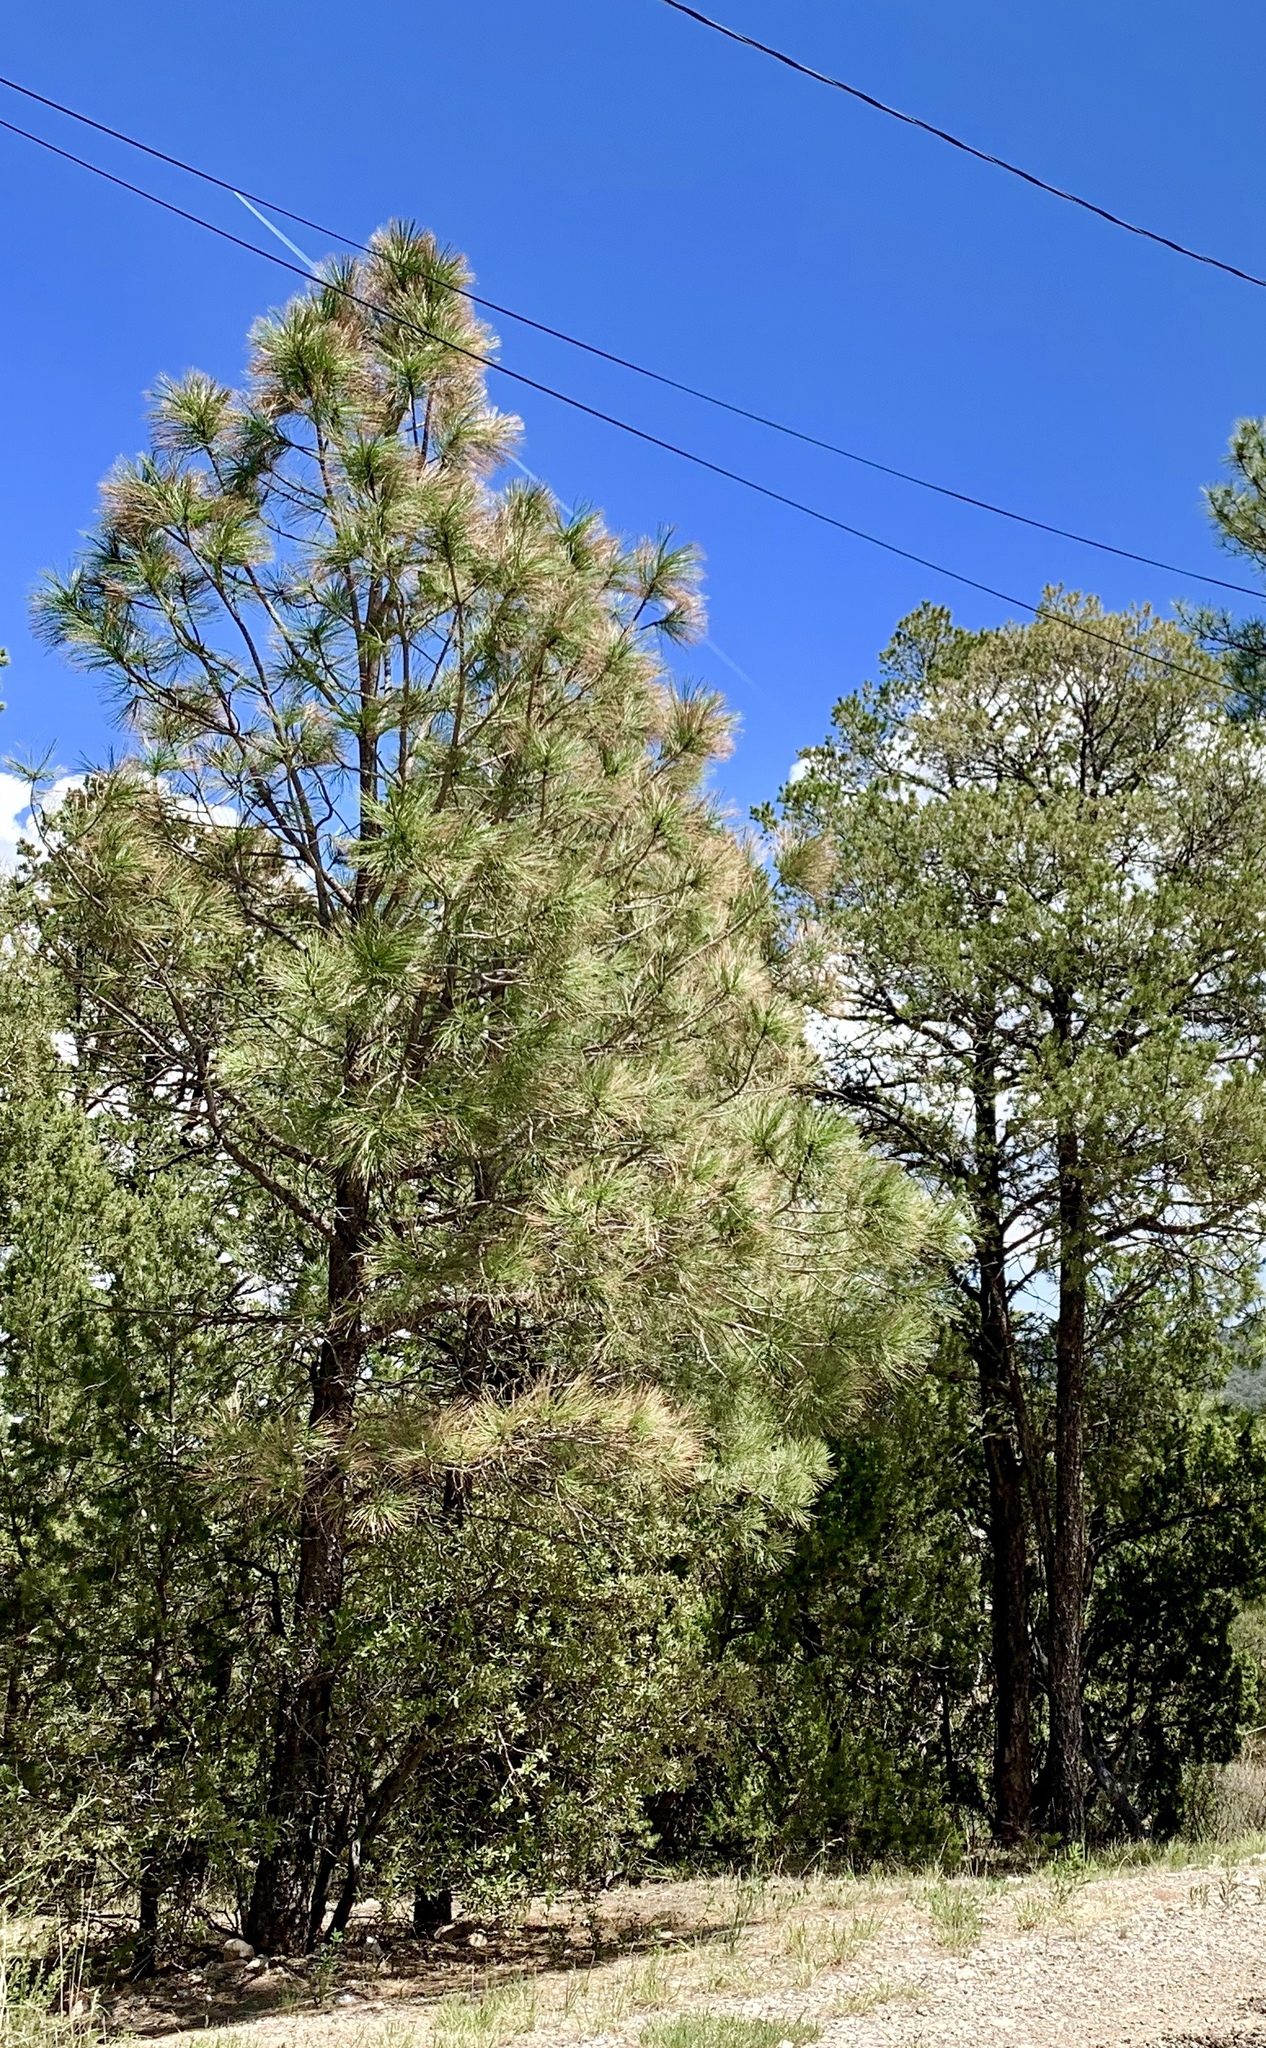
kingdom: Plantae
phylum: Tracheophyta
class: Pinopsida
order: Pinales
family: Pinaceae
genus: Pinus
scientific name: Pinus ponderosa
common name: Western yellow-pine
